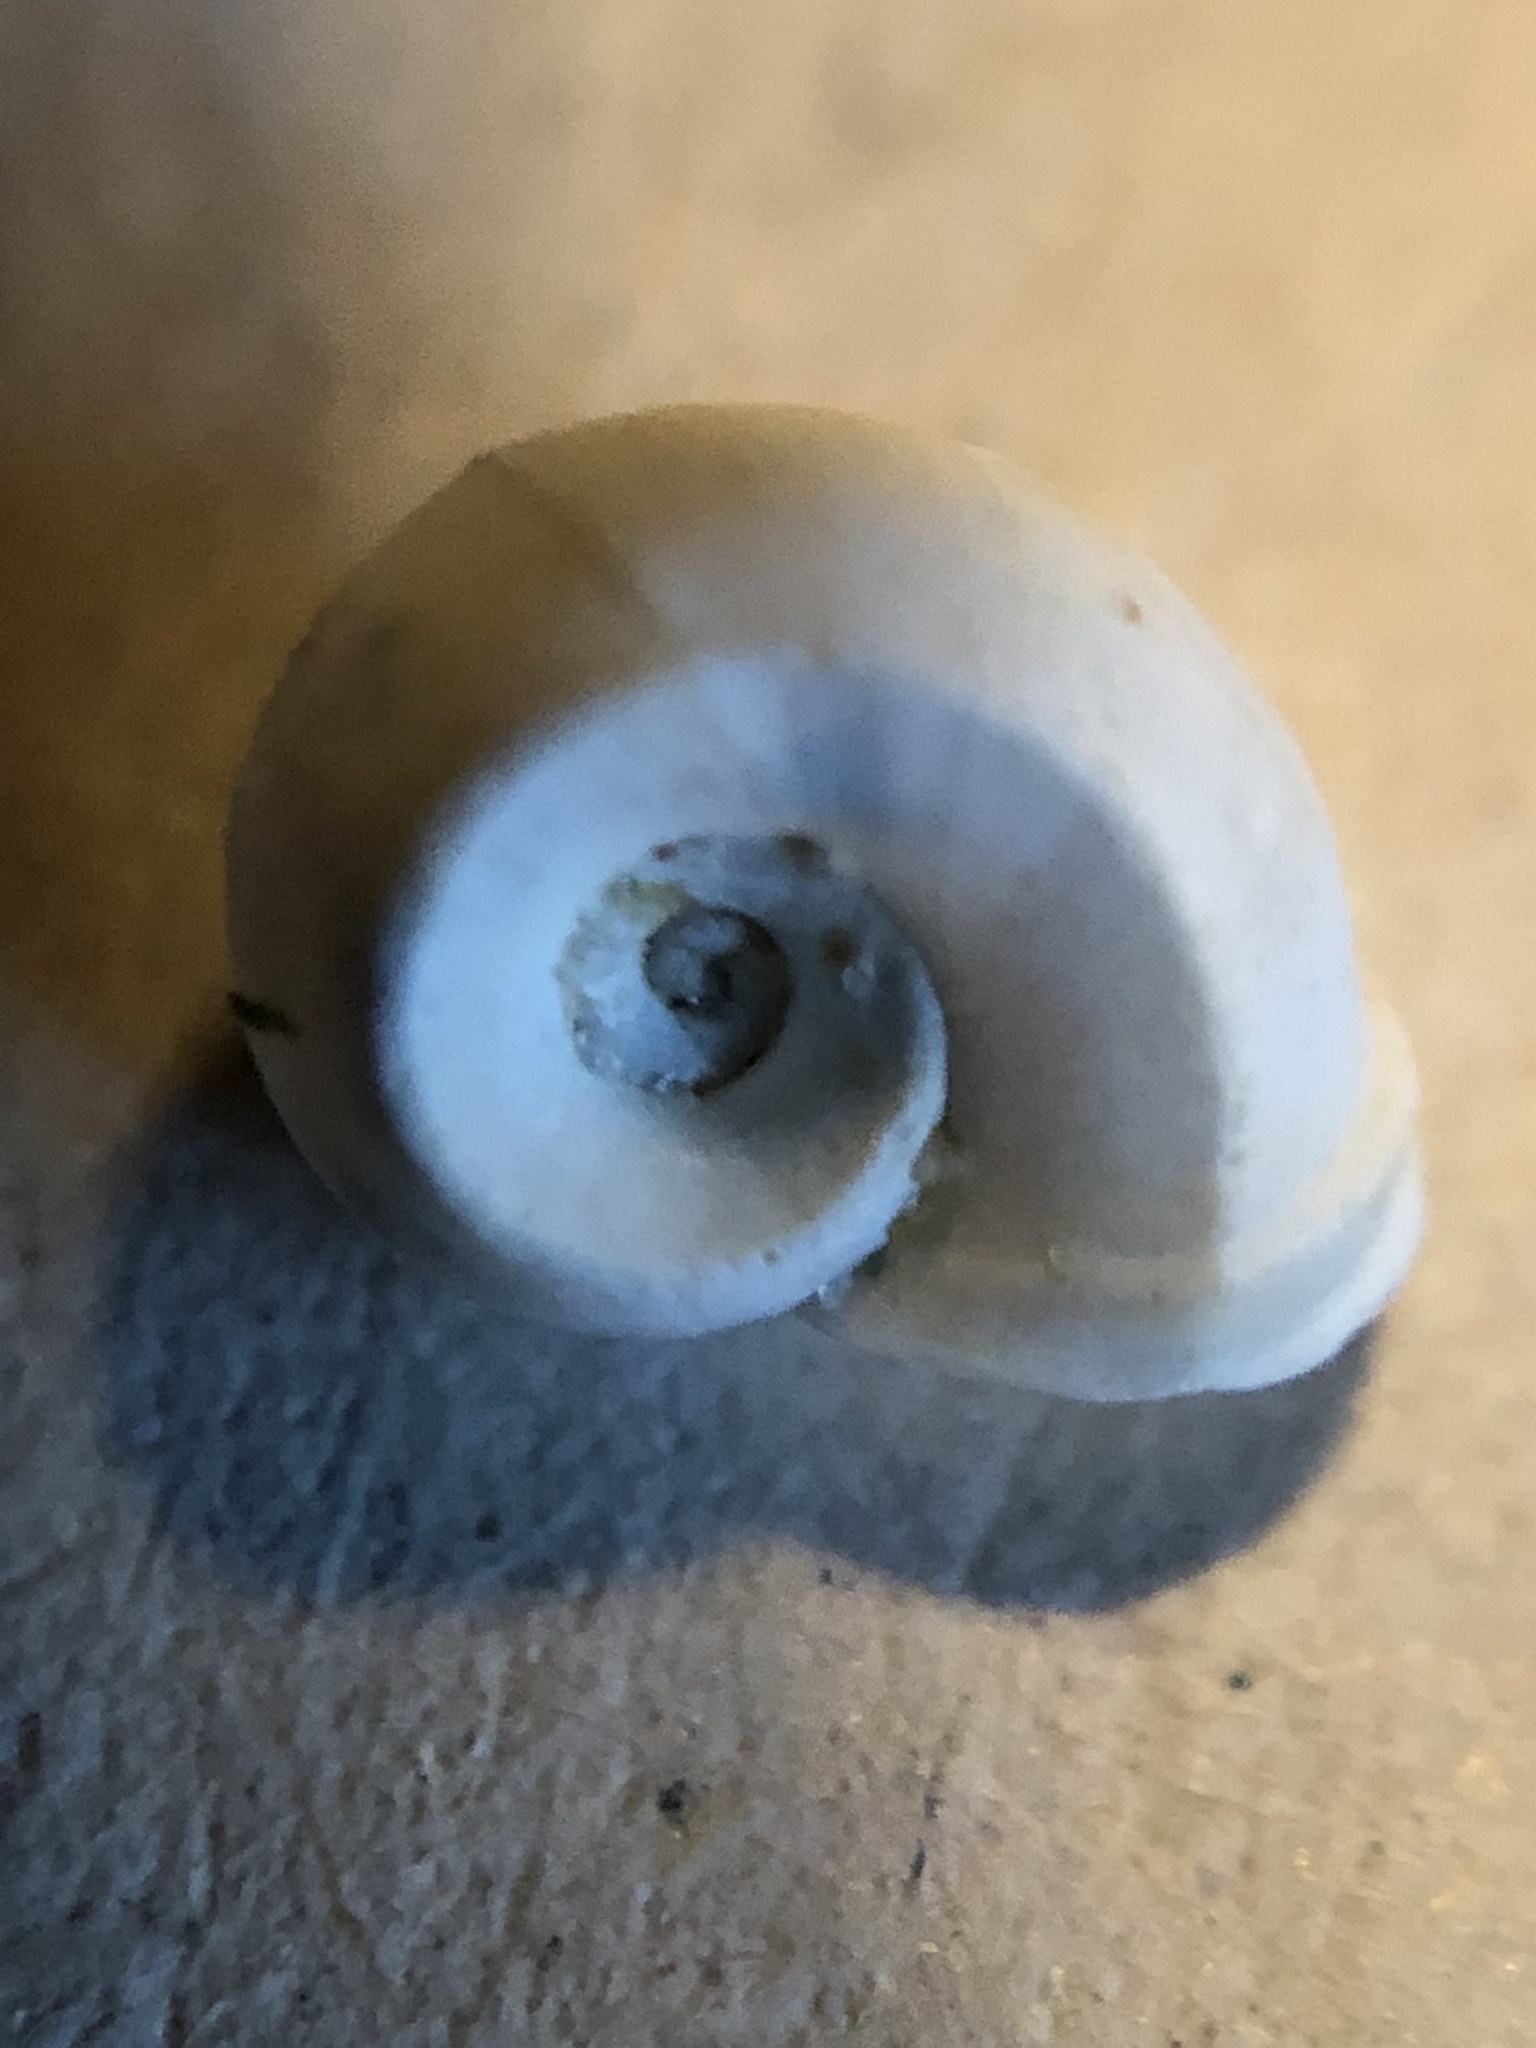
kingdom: Animalia
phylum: Mollusca
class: Gastropoda
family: Planorbidae
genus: Planorbella
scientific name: Planorbella trivolvis
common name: Marsh rams-horn
